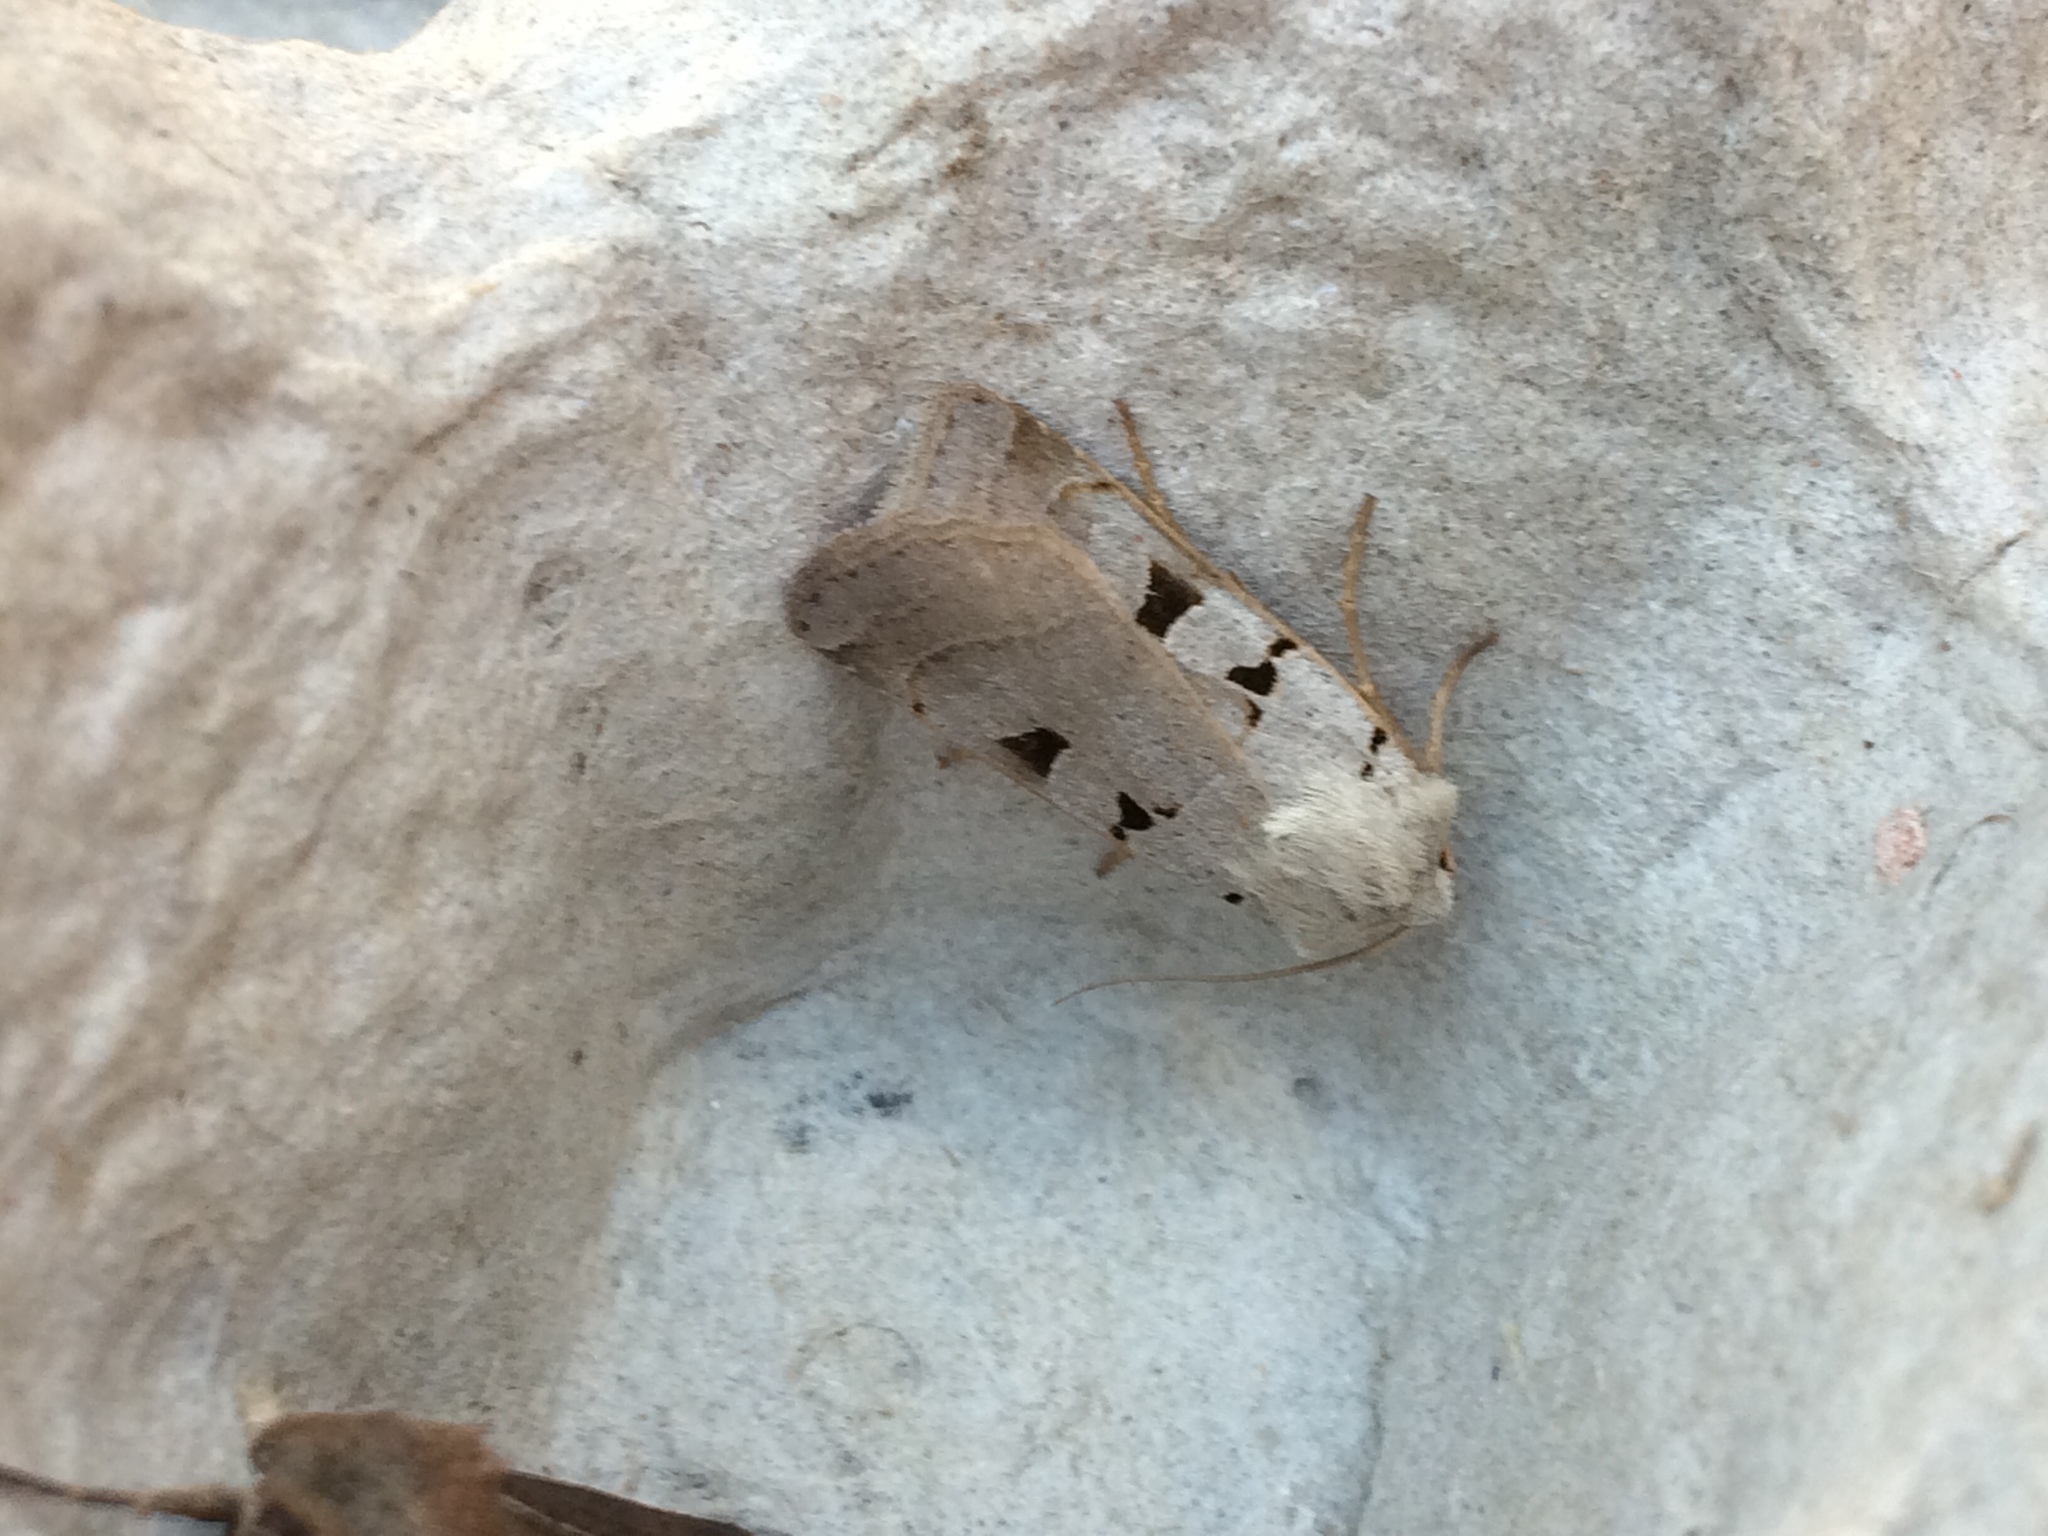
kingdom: Animalia
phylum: Arthropoda
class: Insecta
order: Lepidoptera
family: Noctuidae
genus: Eugnorisma
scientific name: Eugnorisma glareosa
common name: Autumnal rustic
